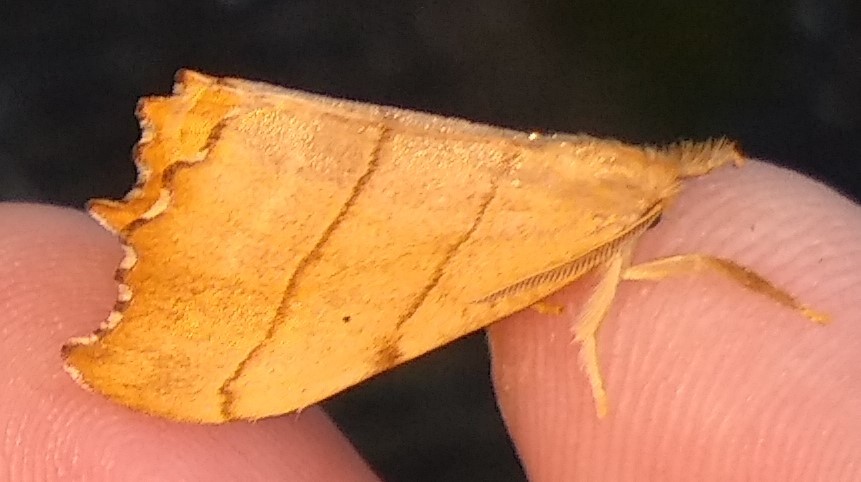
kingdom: Animalia
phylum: Arthropoda
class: Insecta
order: Lepidoptera
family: Drepanidae
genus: Falcaria
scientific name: Falcaria bilineata
